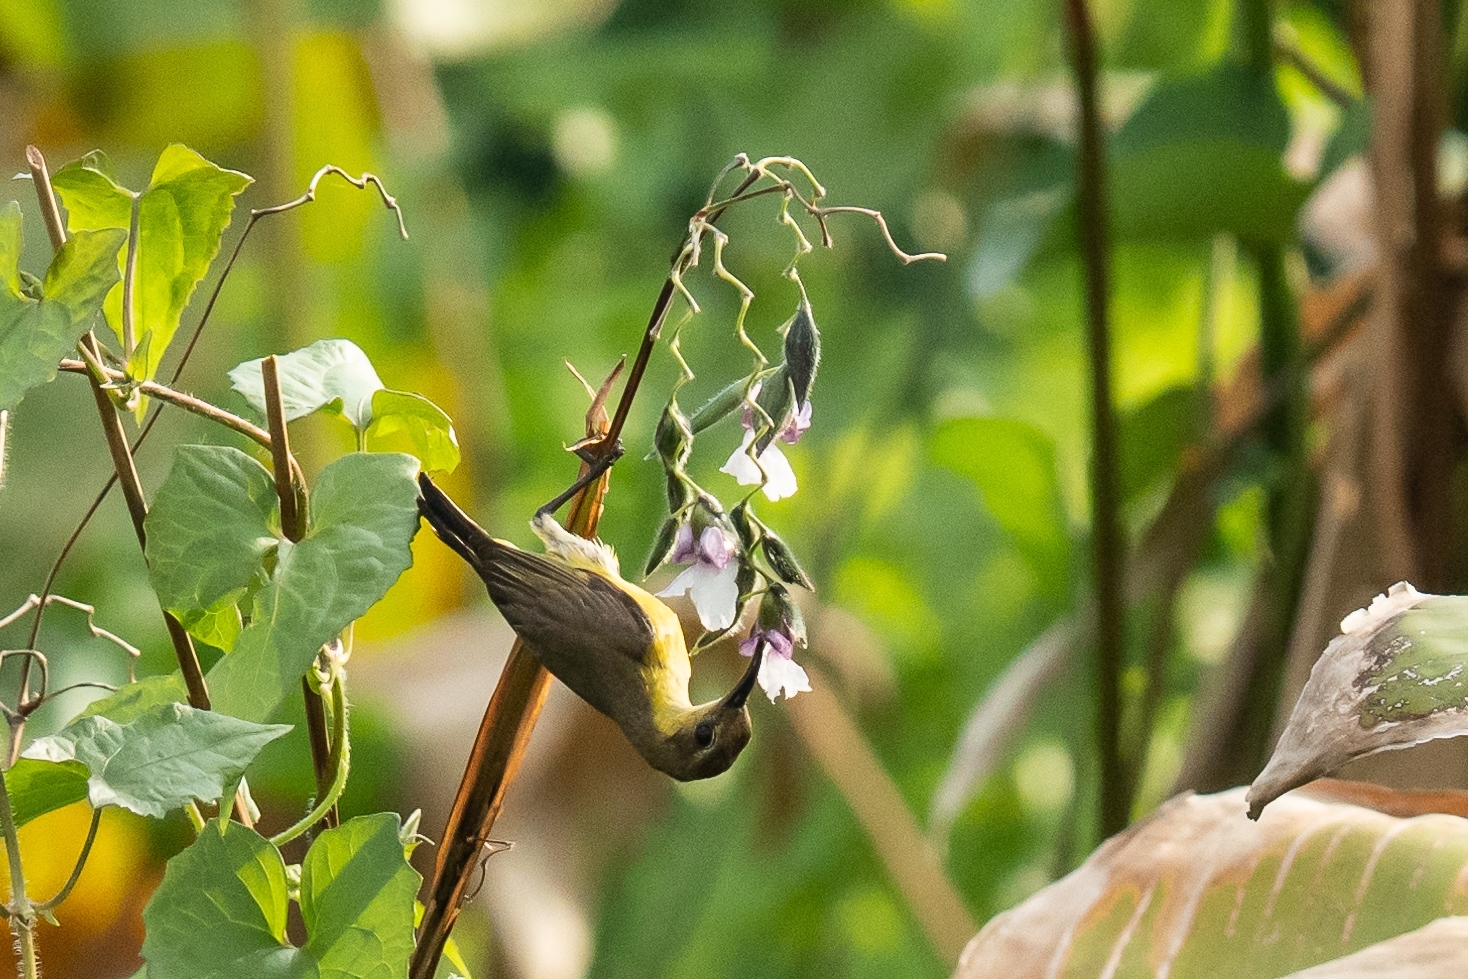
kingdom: Animalia
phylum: Chordata
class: Aves
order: Passeriformes
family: Nectariniidae
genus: Cinnyris
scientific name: Cinnyris
